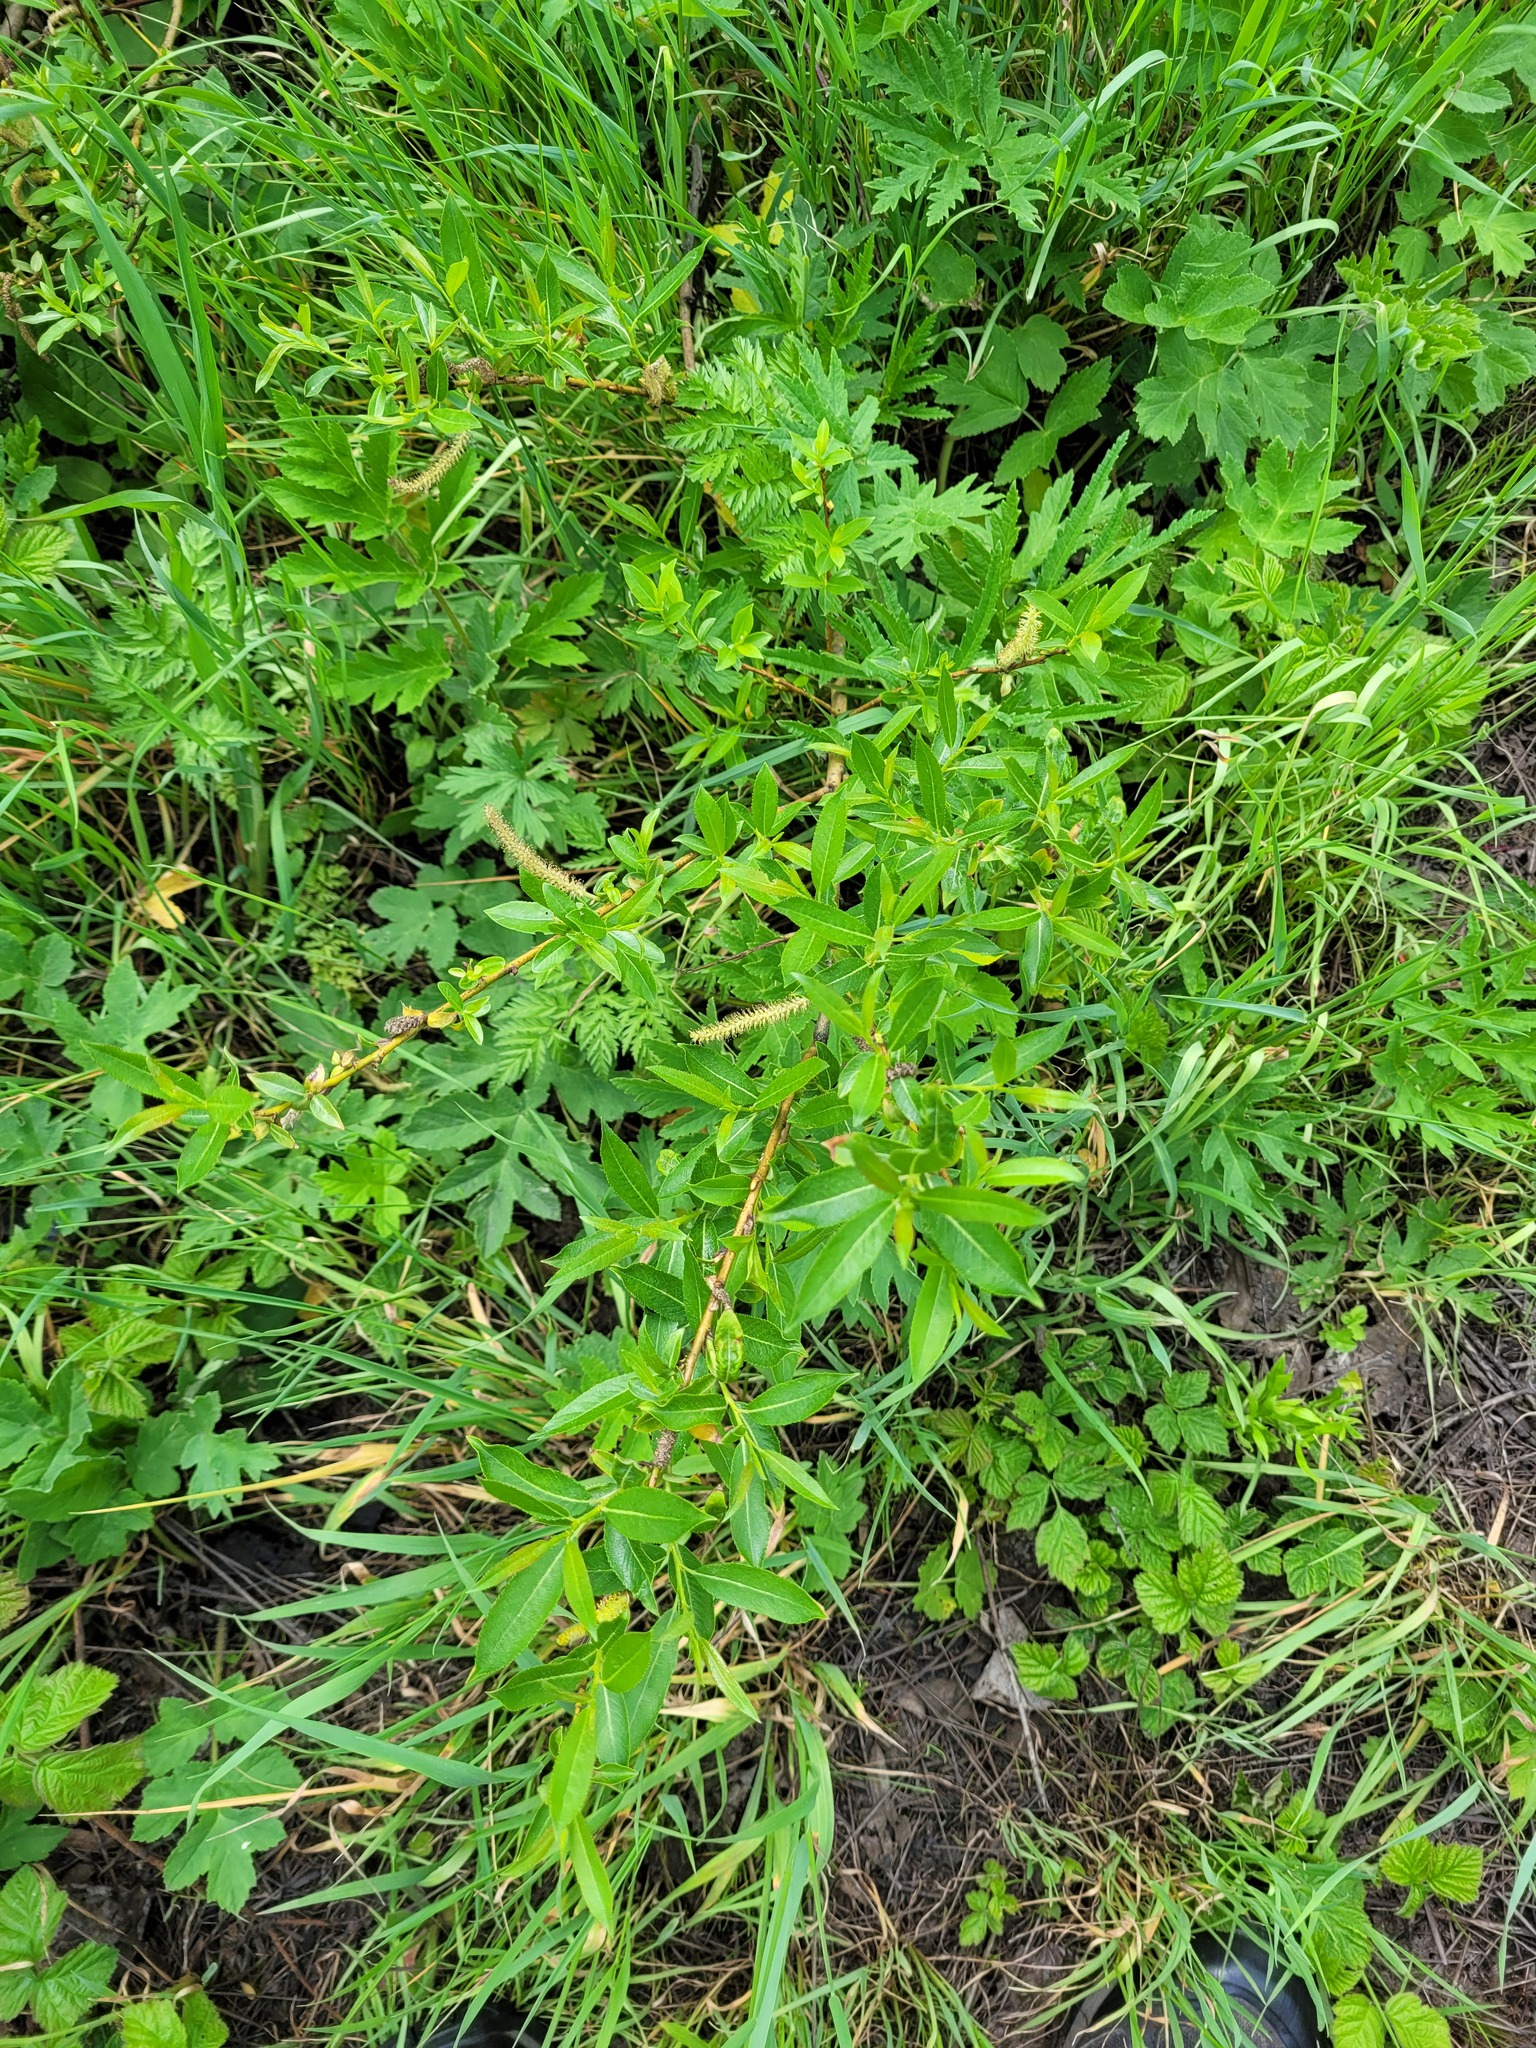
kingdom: Plantae
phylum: Tracheophyta
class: Magnoliopsida
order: Malpighiales
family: Salicaceae
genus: Salix
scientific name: Salix triandra
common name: Almond willow
